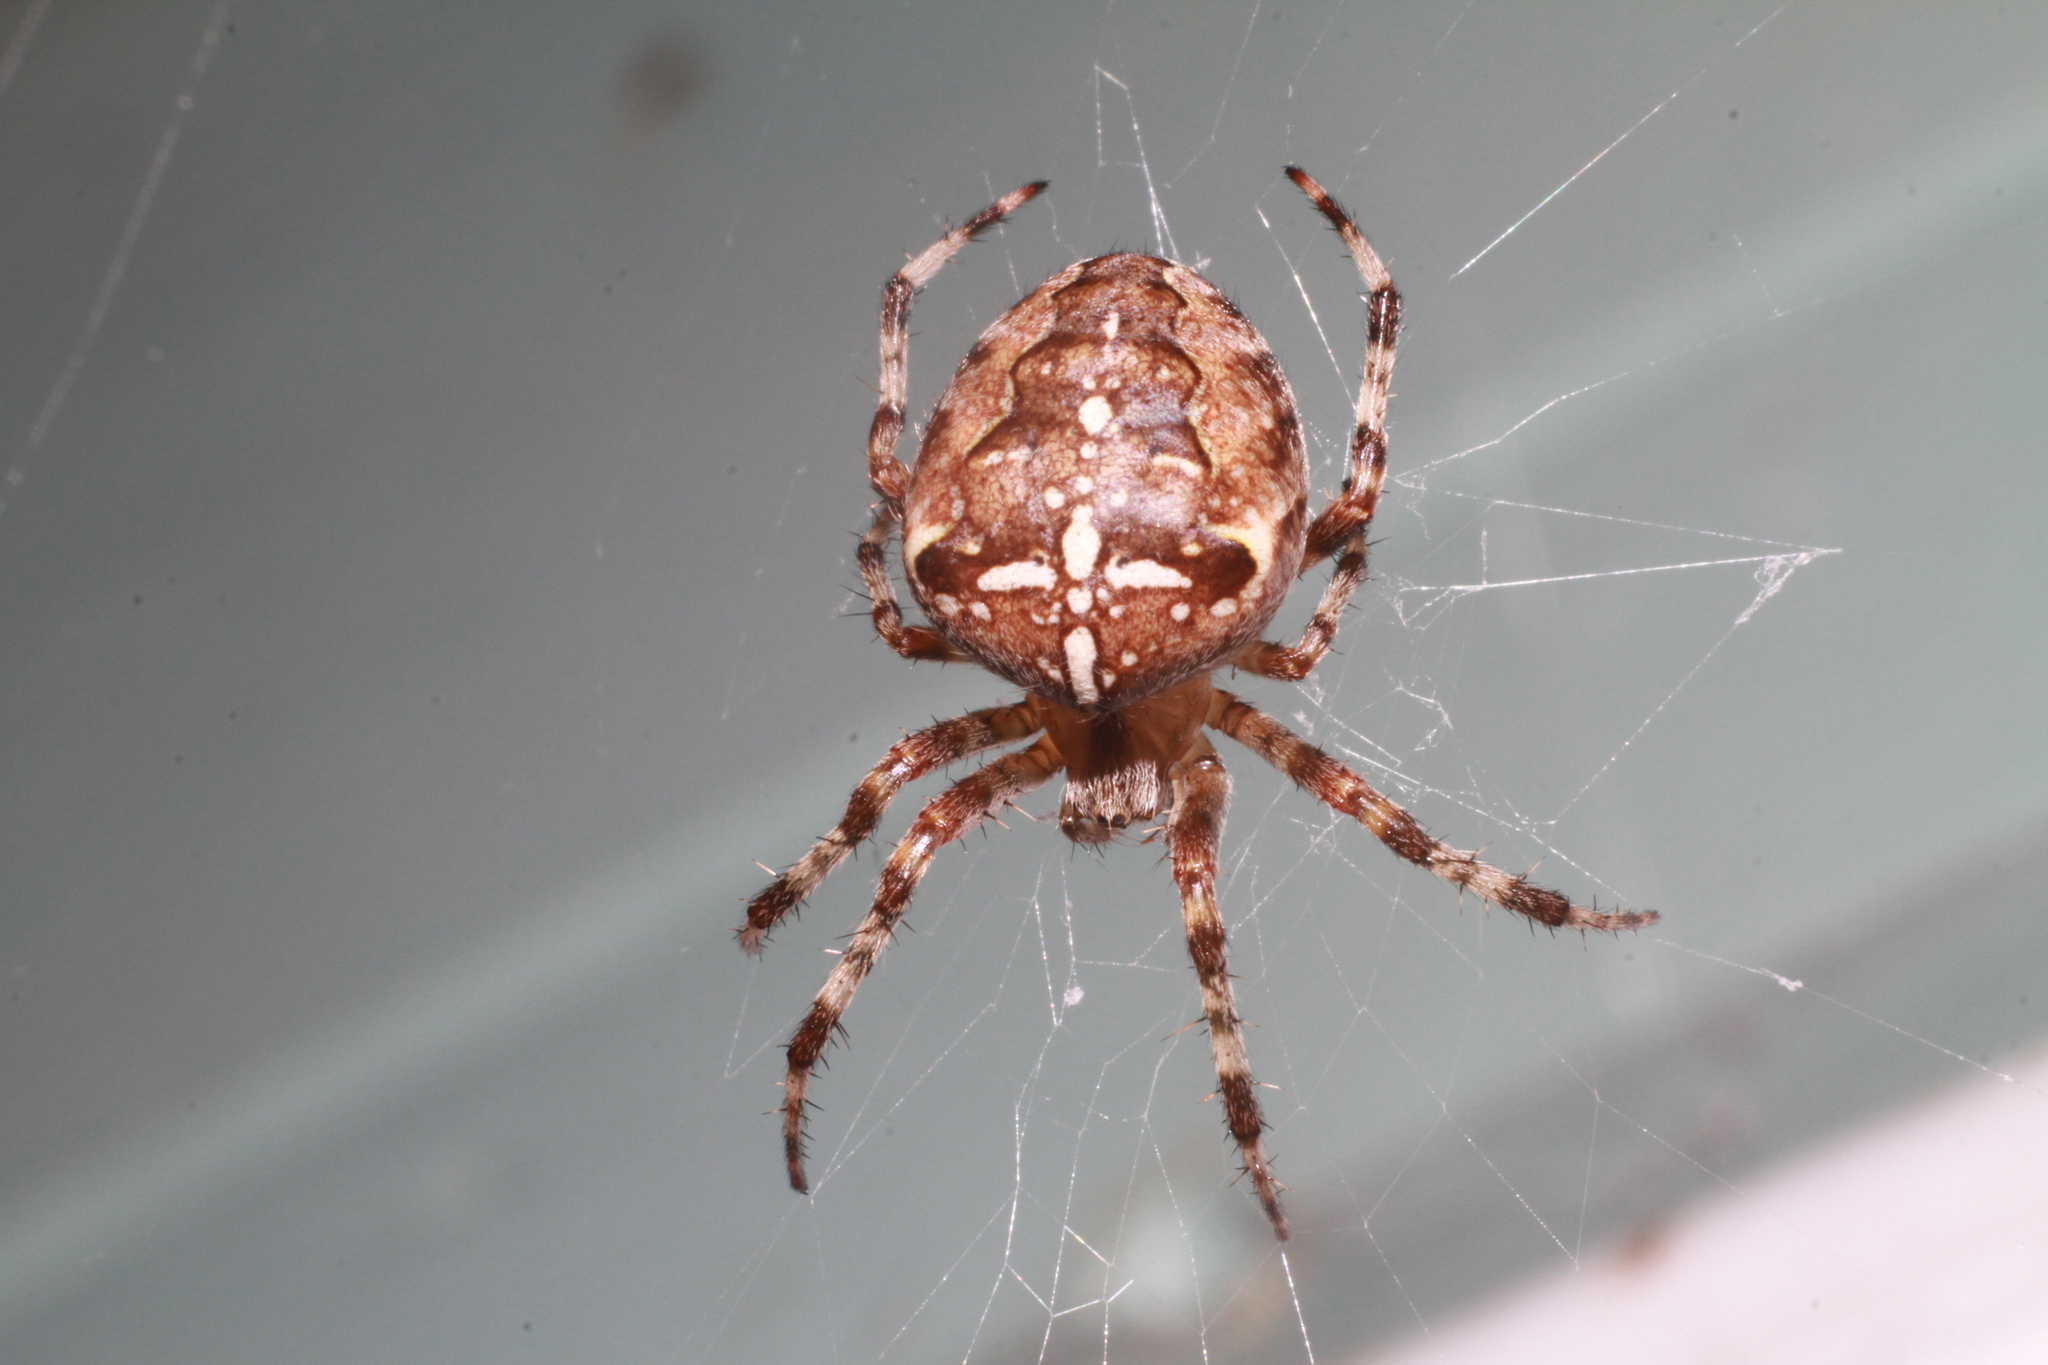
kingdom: Animalia
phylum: Arthropoda
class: Arachnida
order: Araneae
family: Araneidae
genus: Araneus
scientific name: Araneus diadematus
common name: Cross orbweaver
